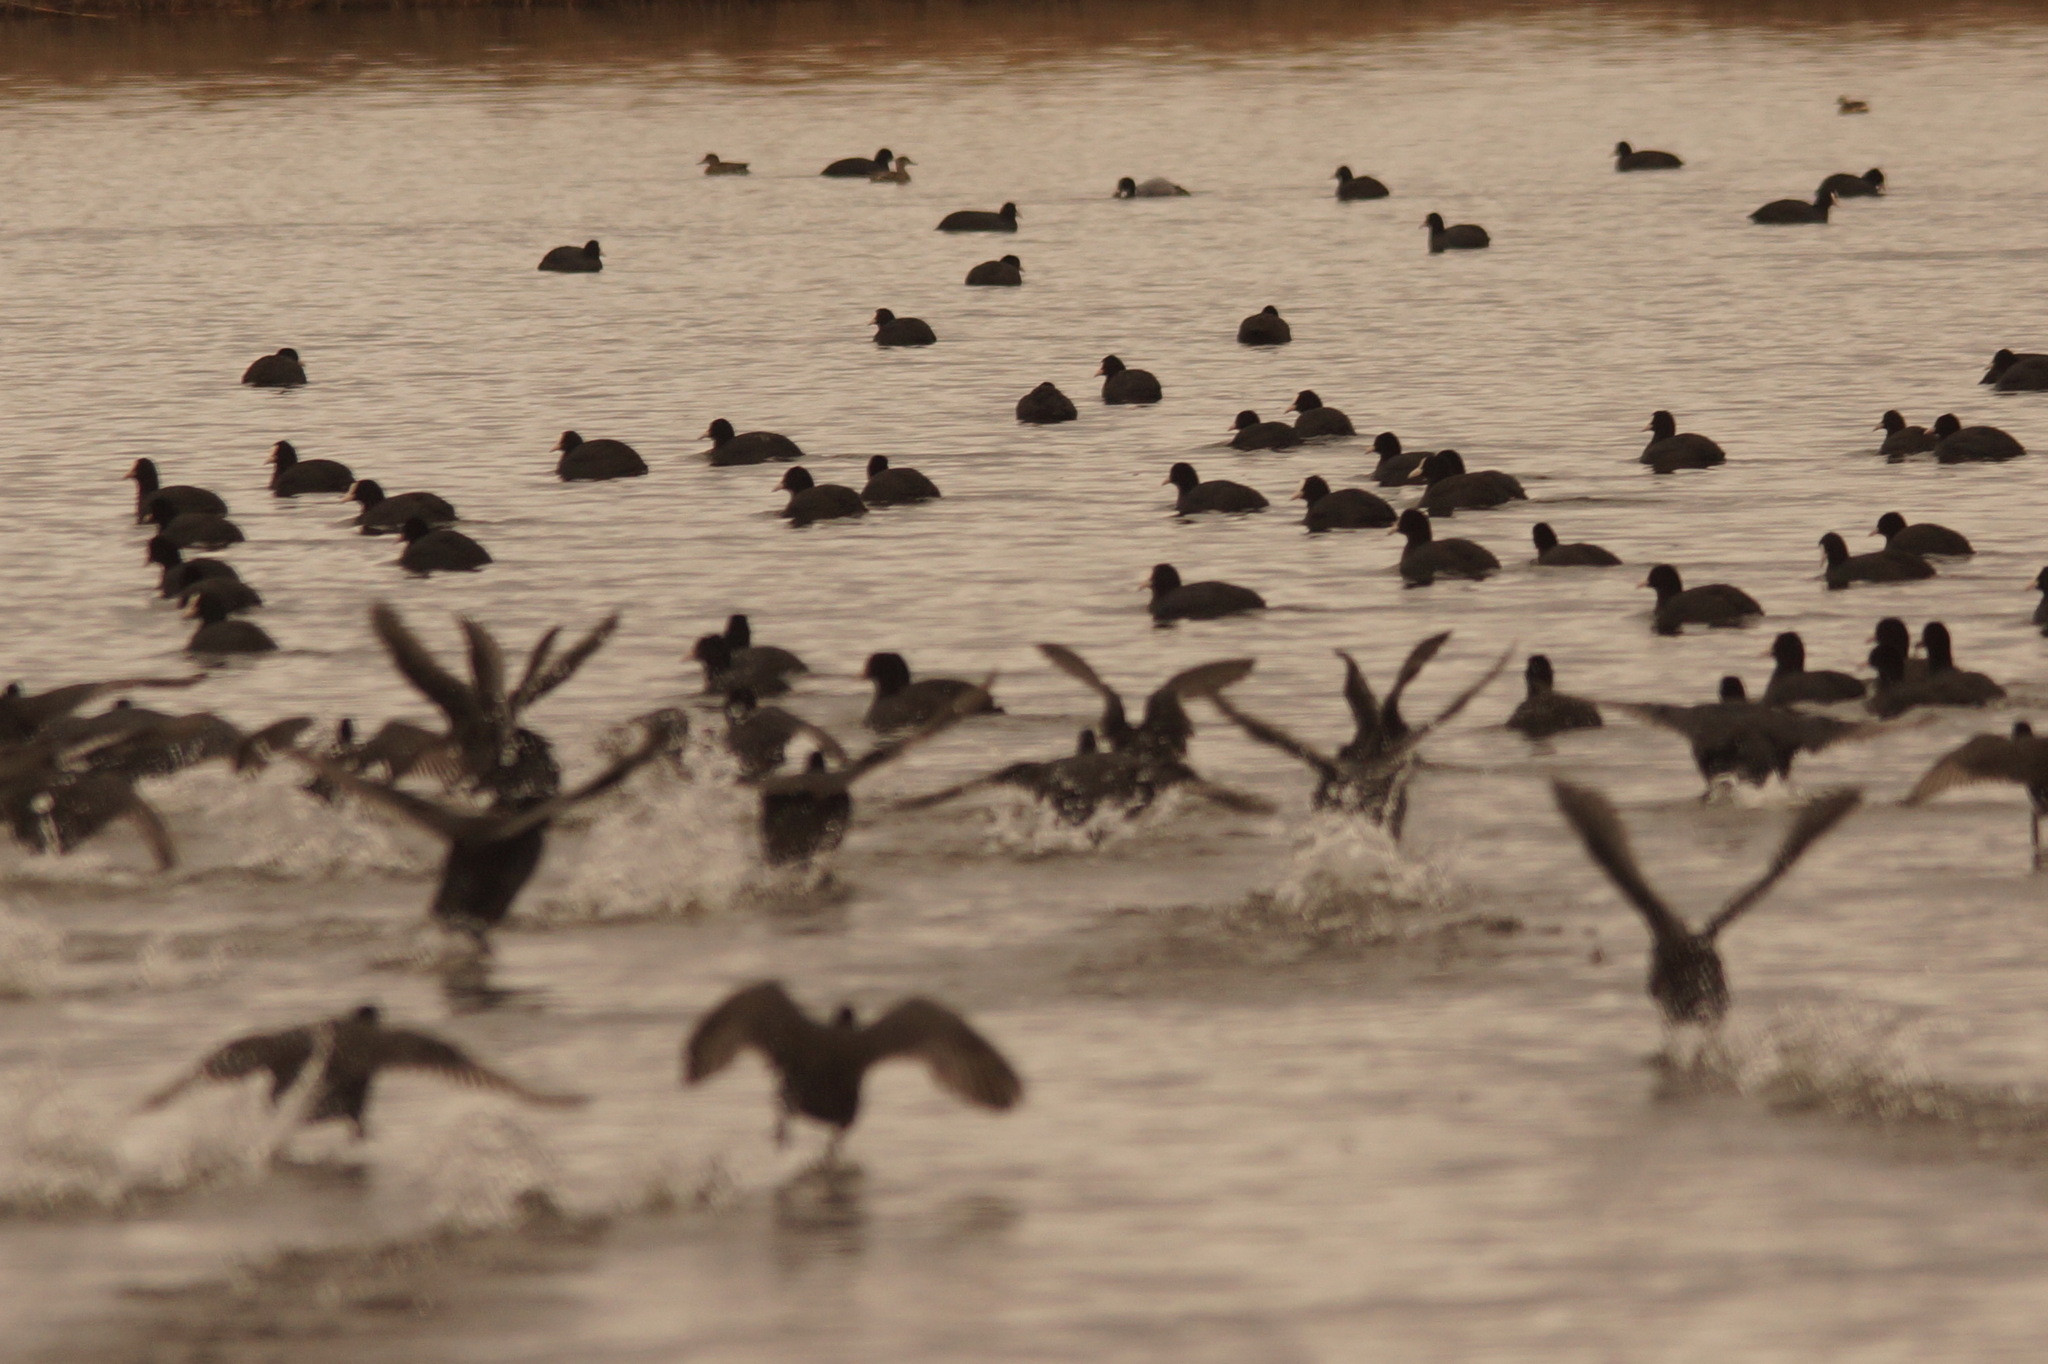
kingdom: Animalia
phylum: Chordata
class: Aves
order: Gruiformes
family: Rallidae
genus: Fulica
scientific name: Fulica atra
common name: Eurasian coot
